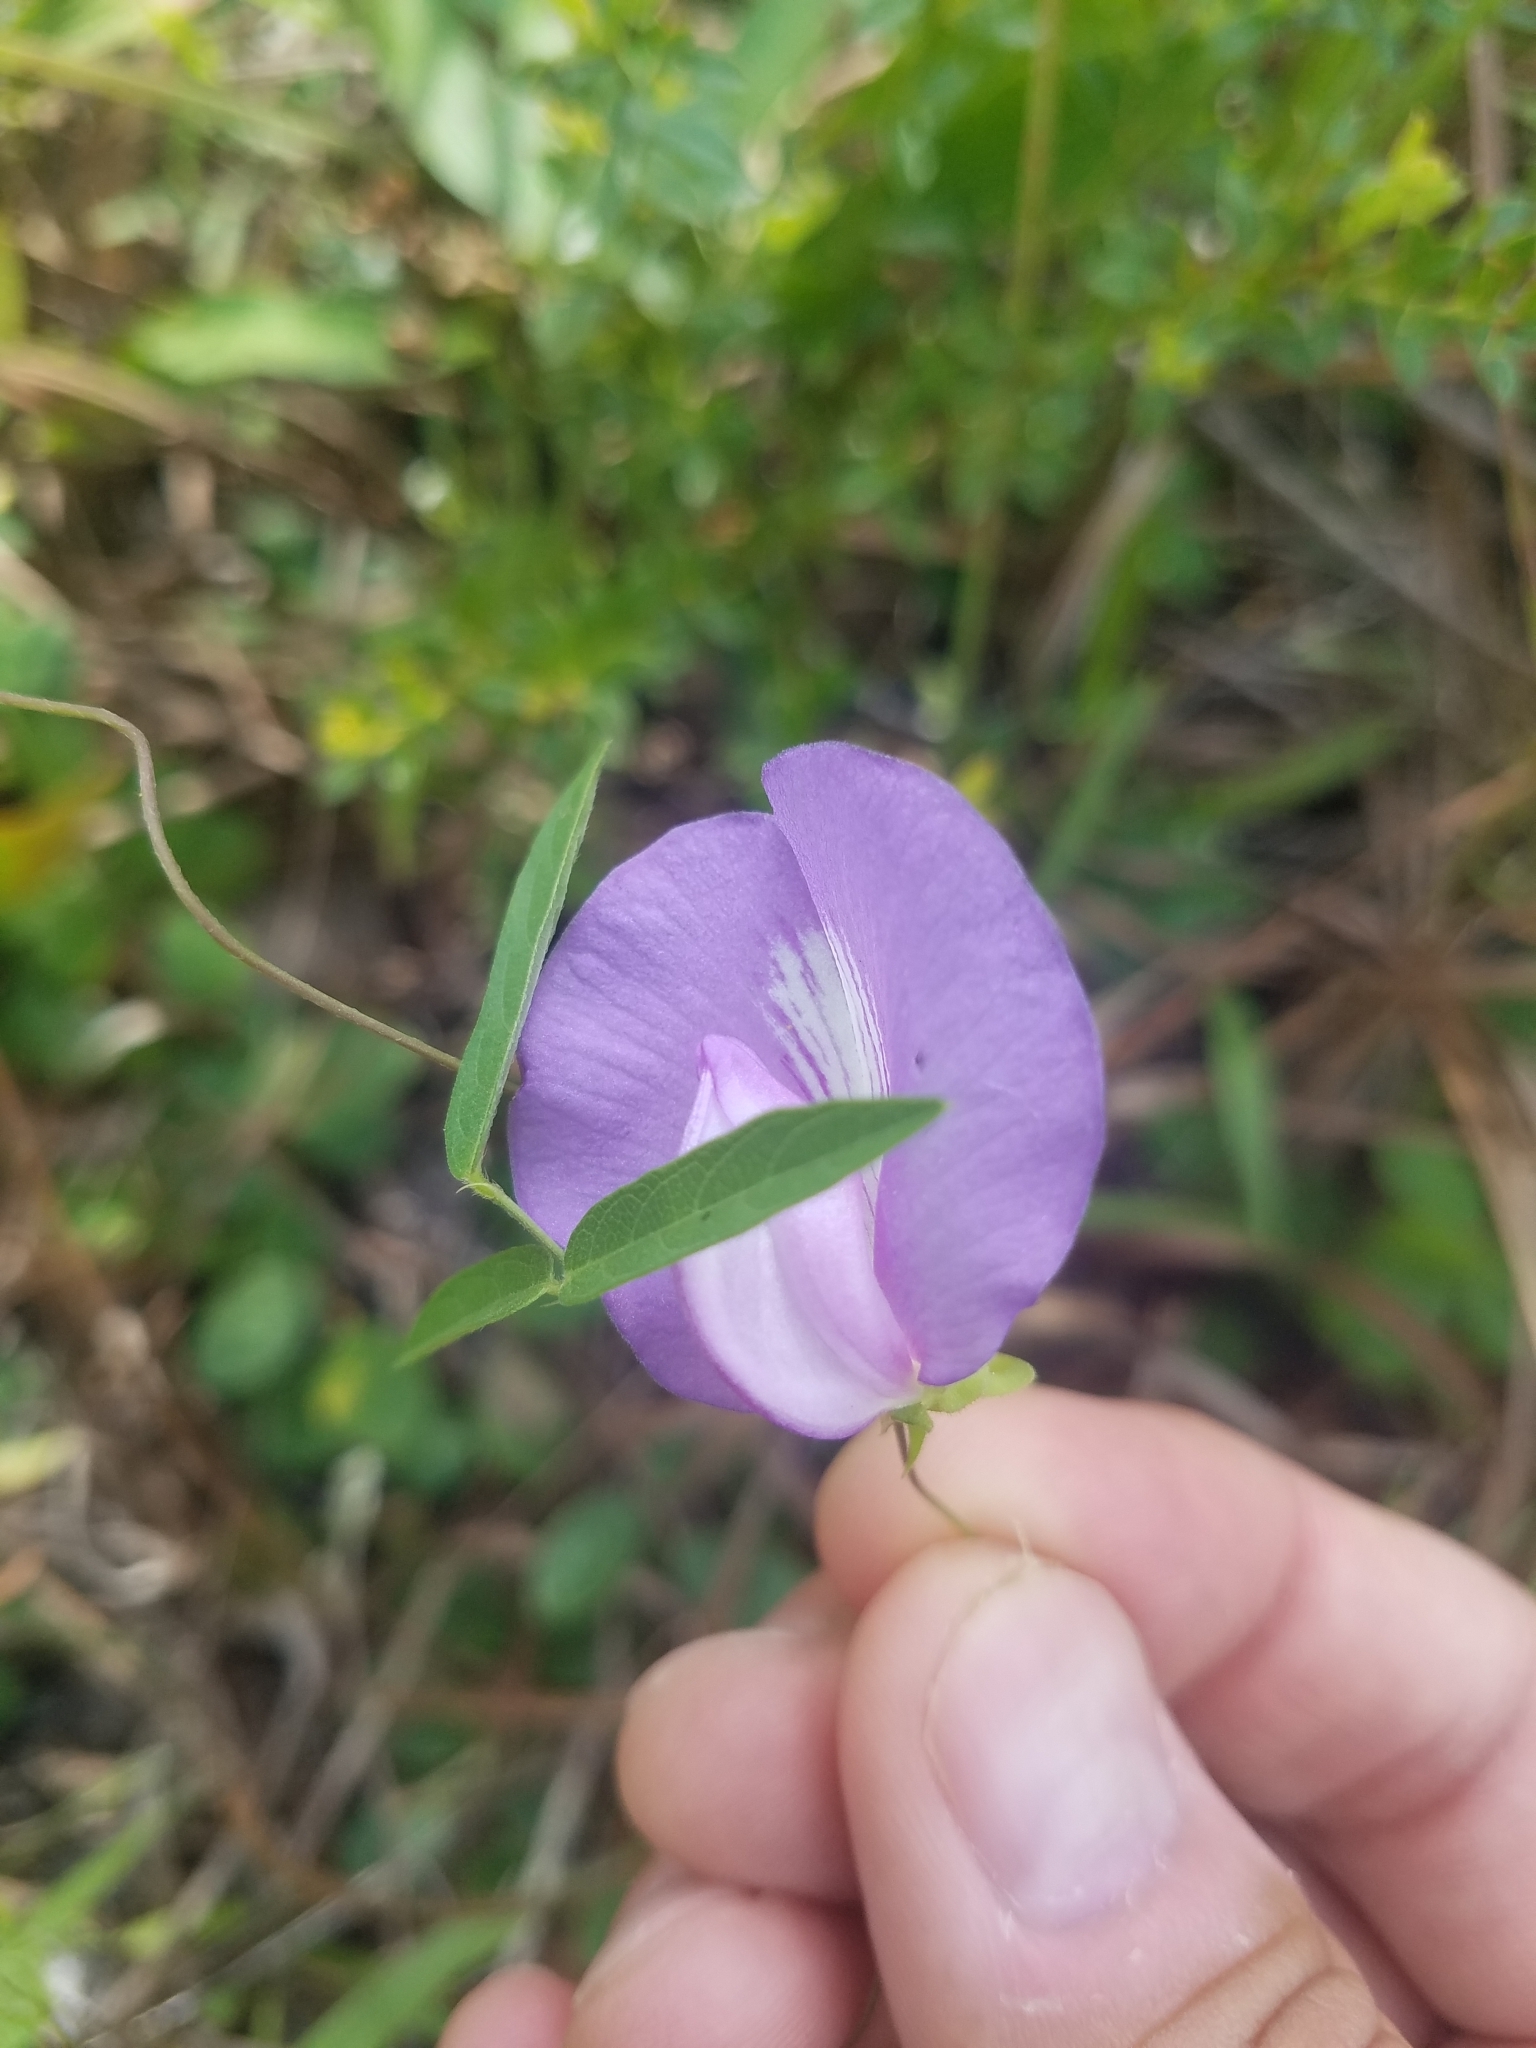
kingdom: Plantae
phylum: Tracheophyta
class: Magnoliopsida
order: Fabales
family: Fabaceae
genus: Centrosema
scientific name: Centrosema virginianum
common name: Butterfly-pea
